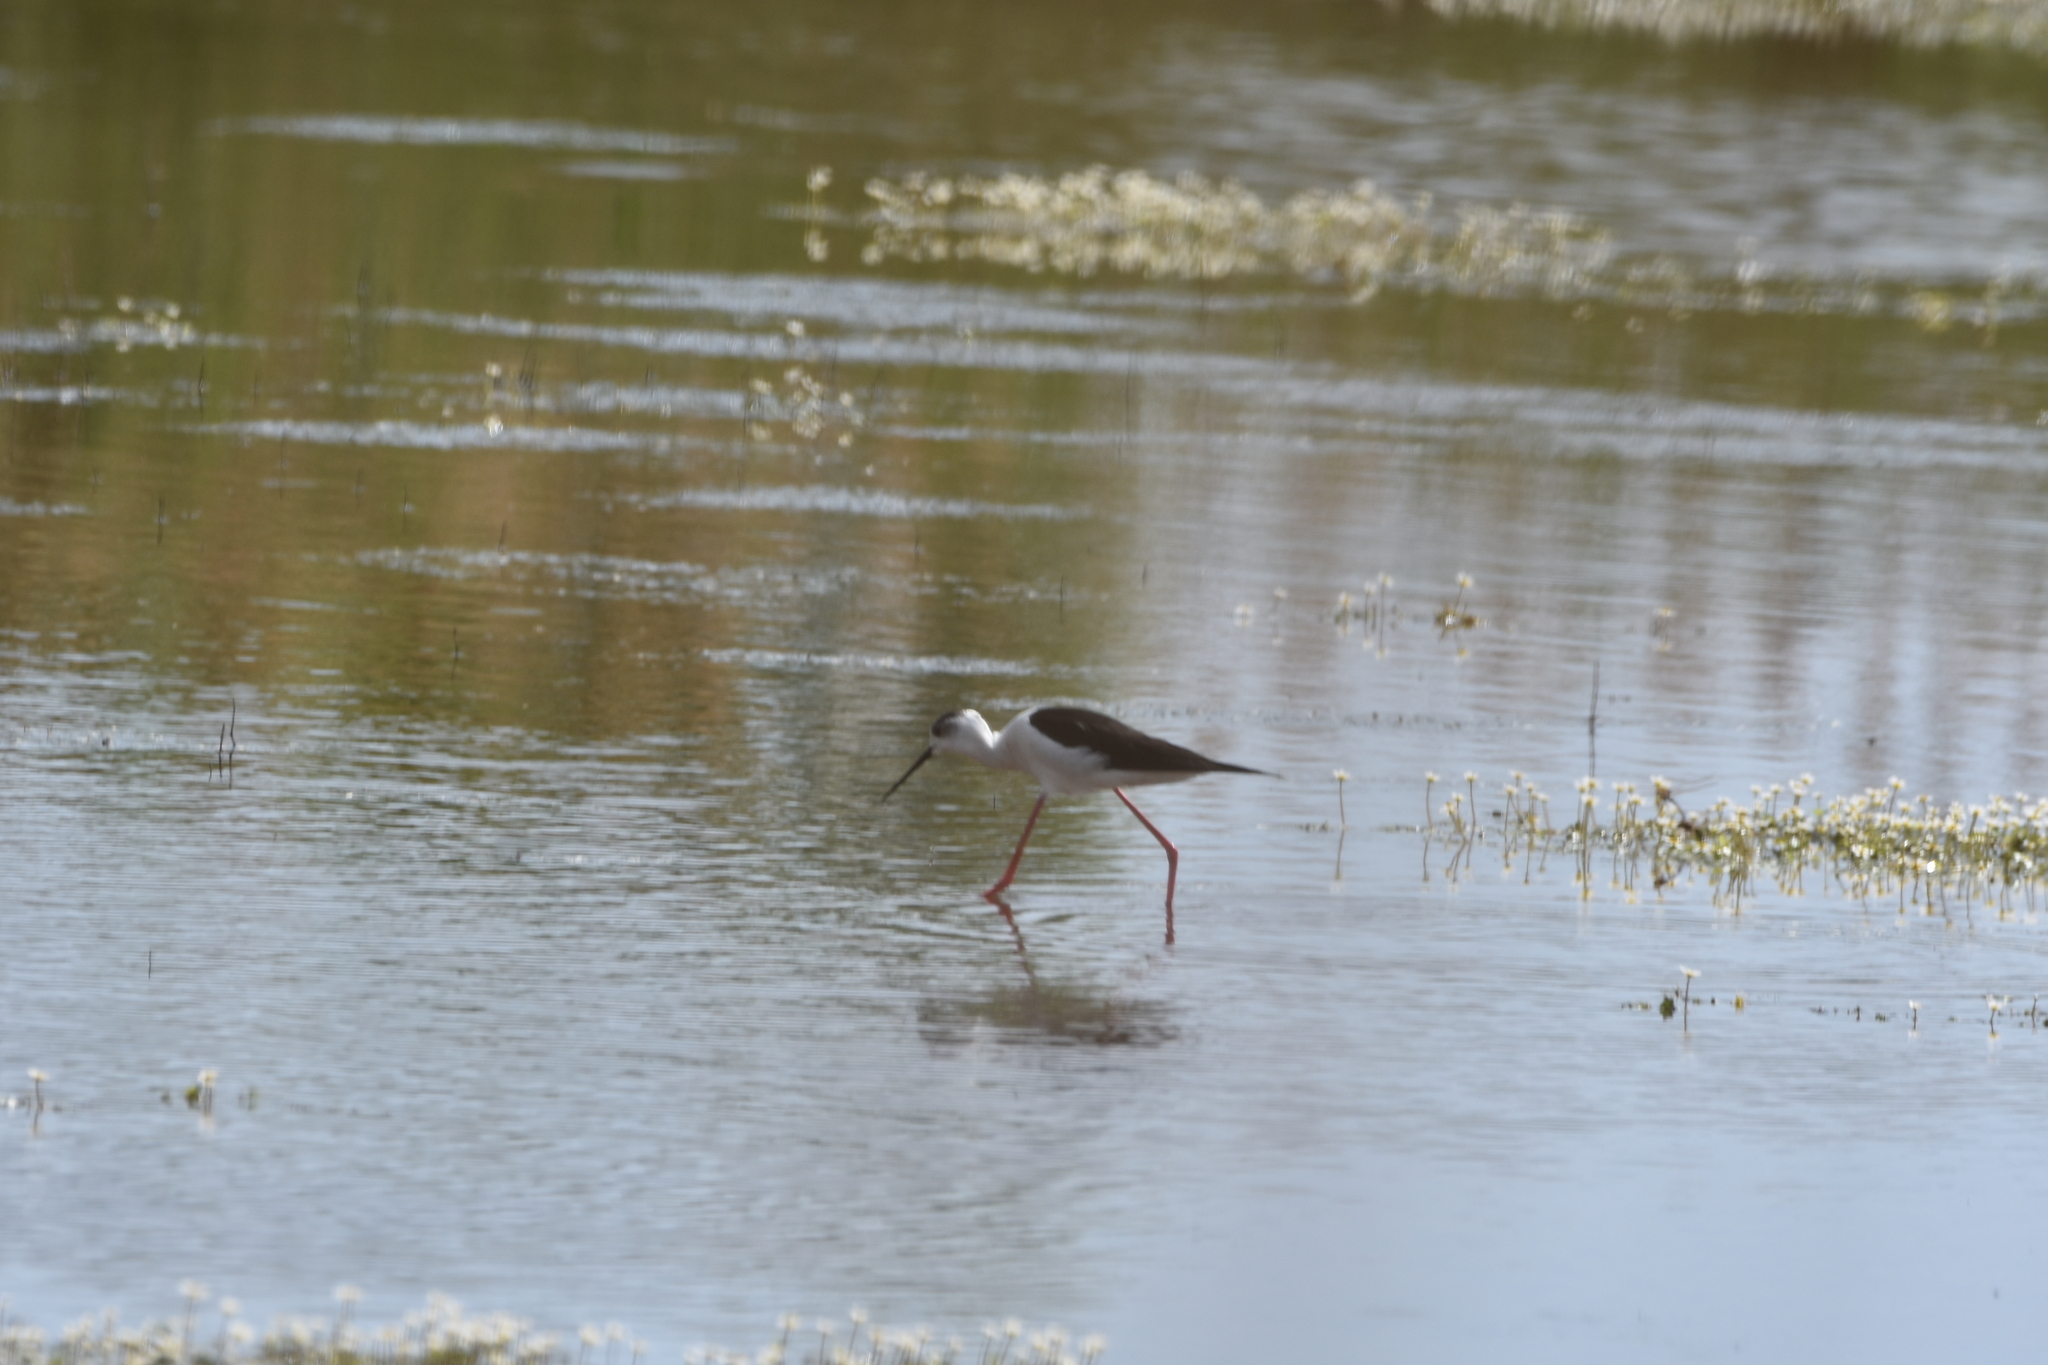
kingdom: Animalia
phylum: Chordata
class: Aves
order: Charadriiformes
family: Recurvirostridae
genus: Himantopus
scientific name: Himantopus himantopus
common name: Black-winged stilt
